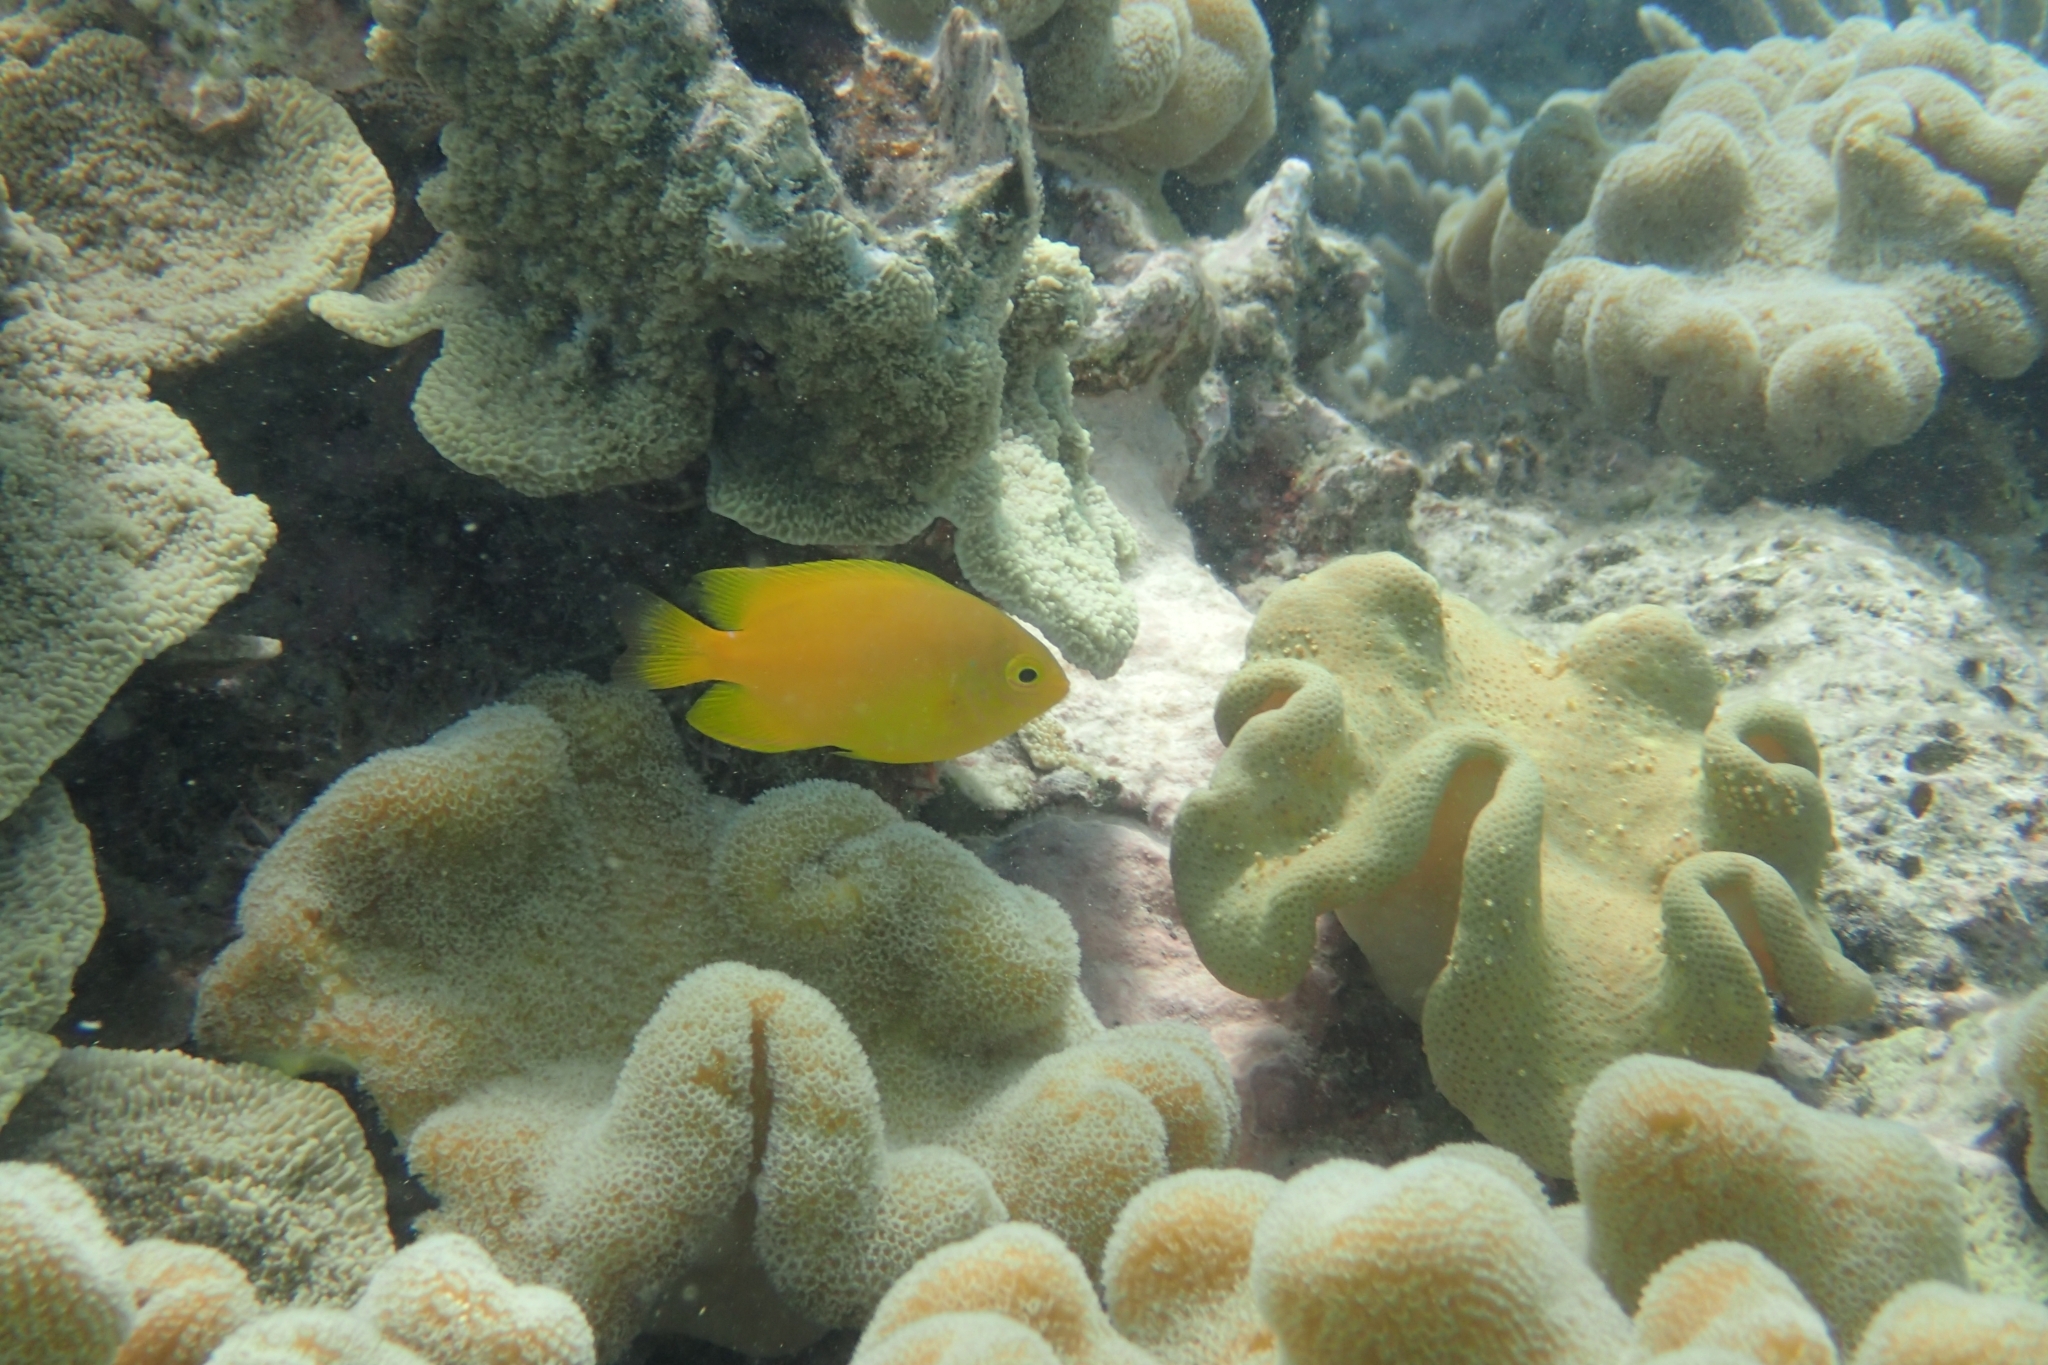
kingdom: Animalia
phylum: Chordata
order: Perciformes
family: Pomacentridae
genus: Pomacentrus
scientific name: Pomacentrus moluccensis
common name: Lemon damsel
